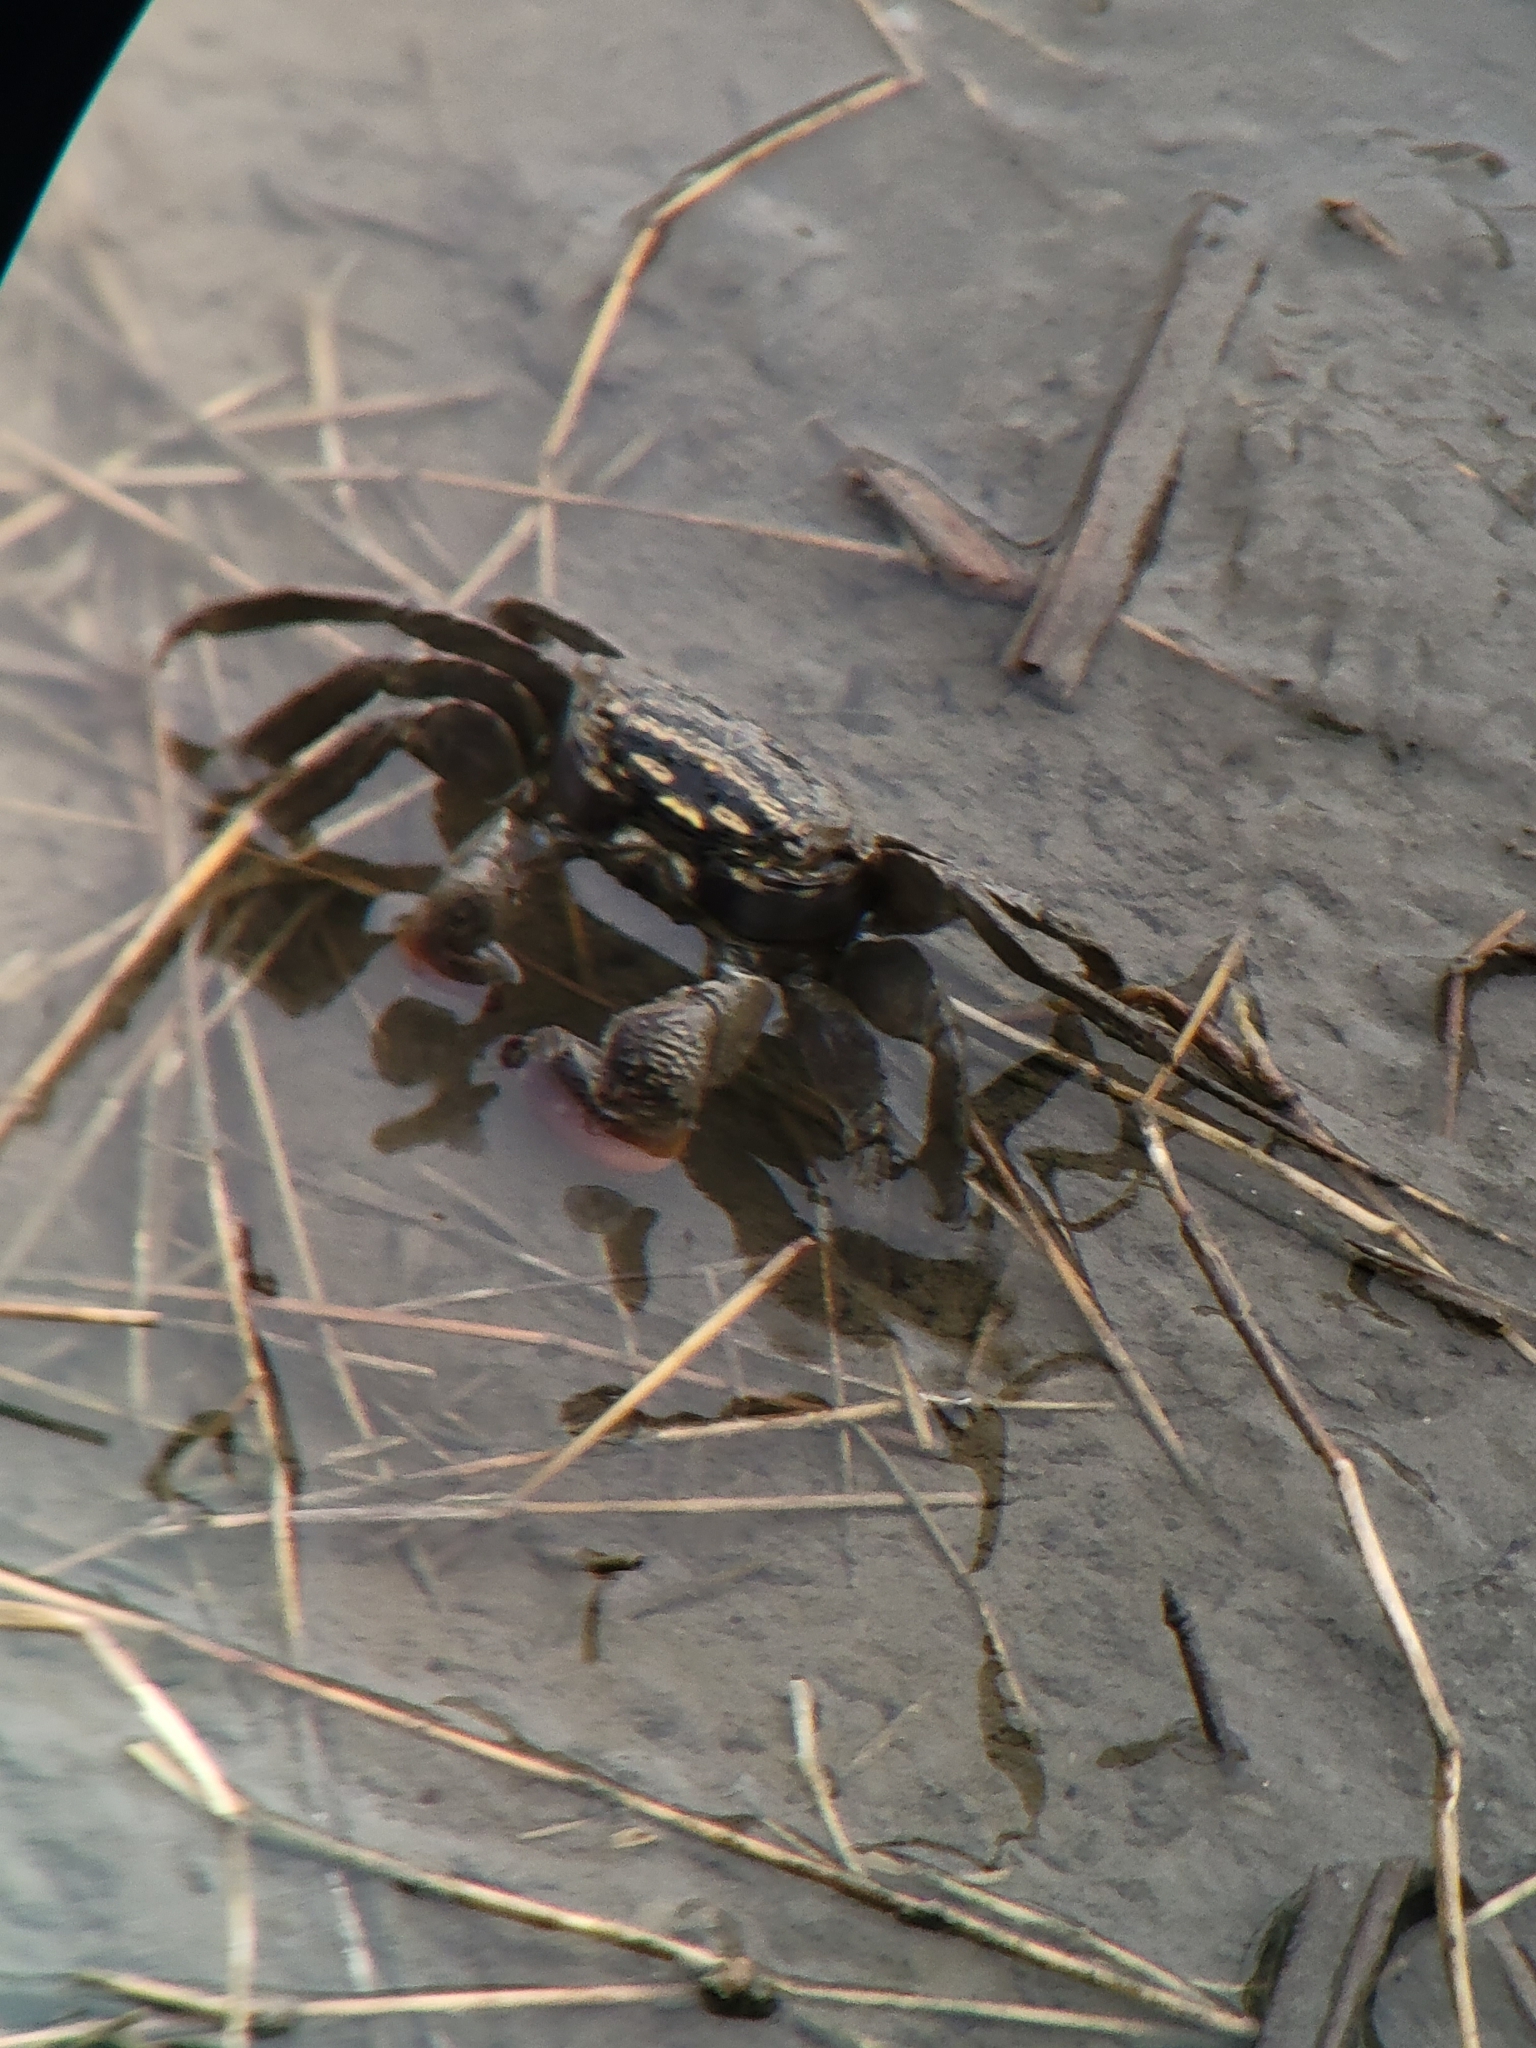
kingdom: Animalia
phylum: Arthropoda
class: Malacostraca
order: Decapoda
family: Sesarmidae
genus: Parasesarma
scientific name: Parasesarma affine
